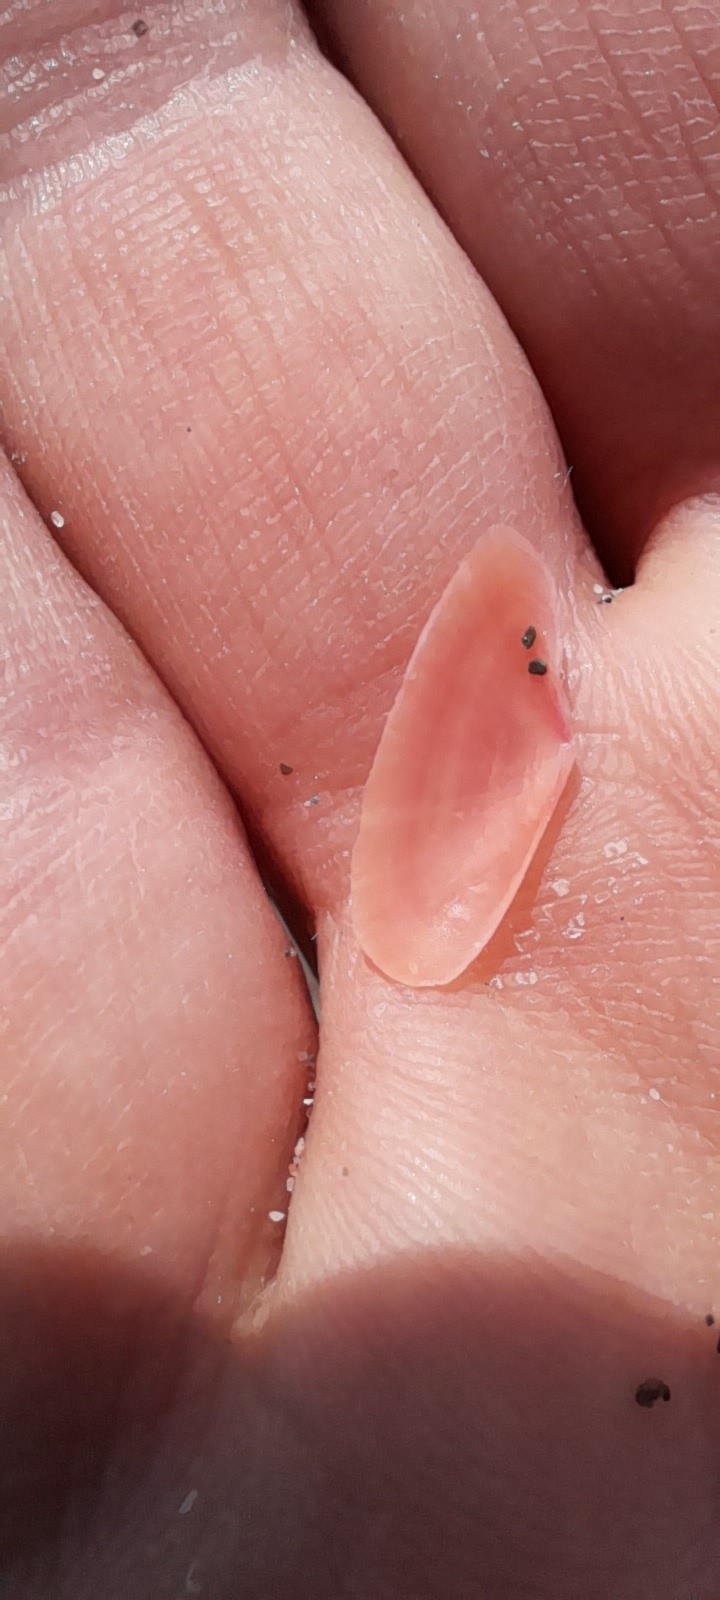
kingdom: Animalia
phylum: Mollusca
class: Bivalvia
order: Cardiida
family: Tellinidae
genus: Moerella
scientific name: Moerella pulchella
